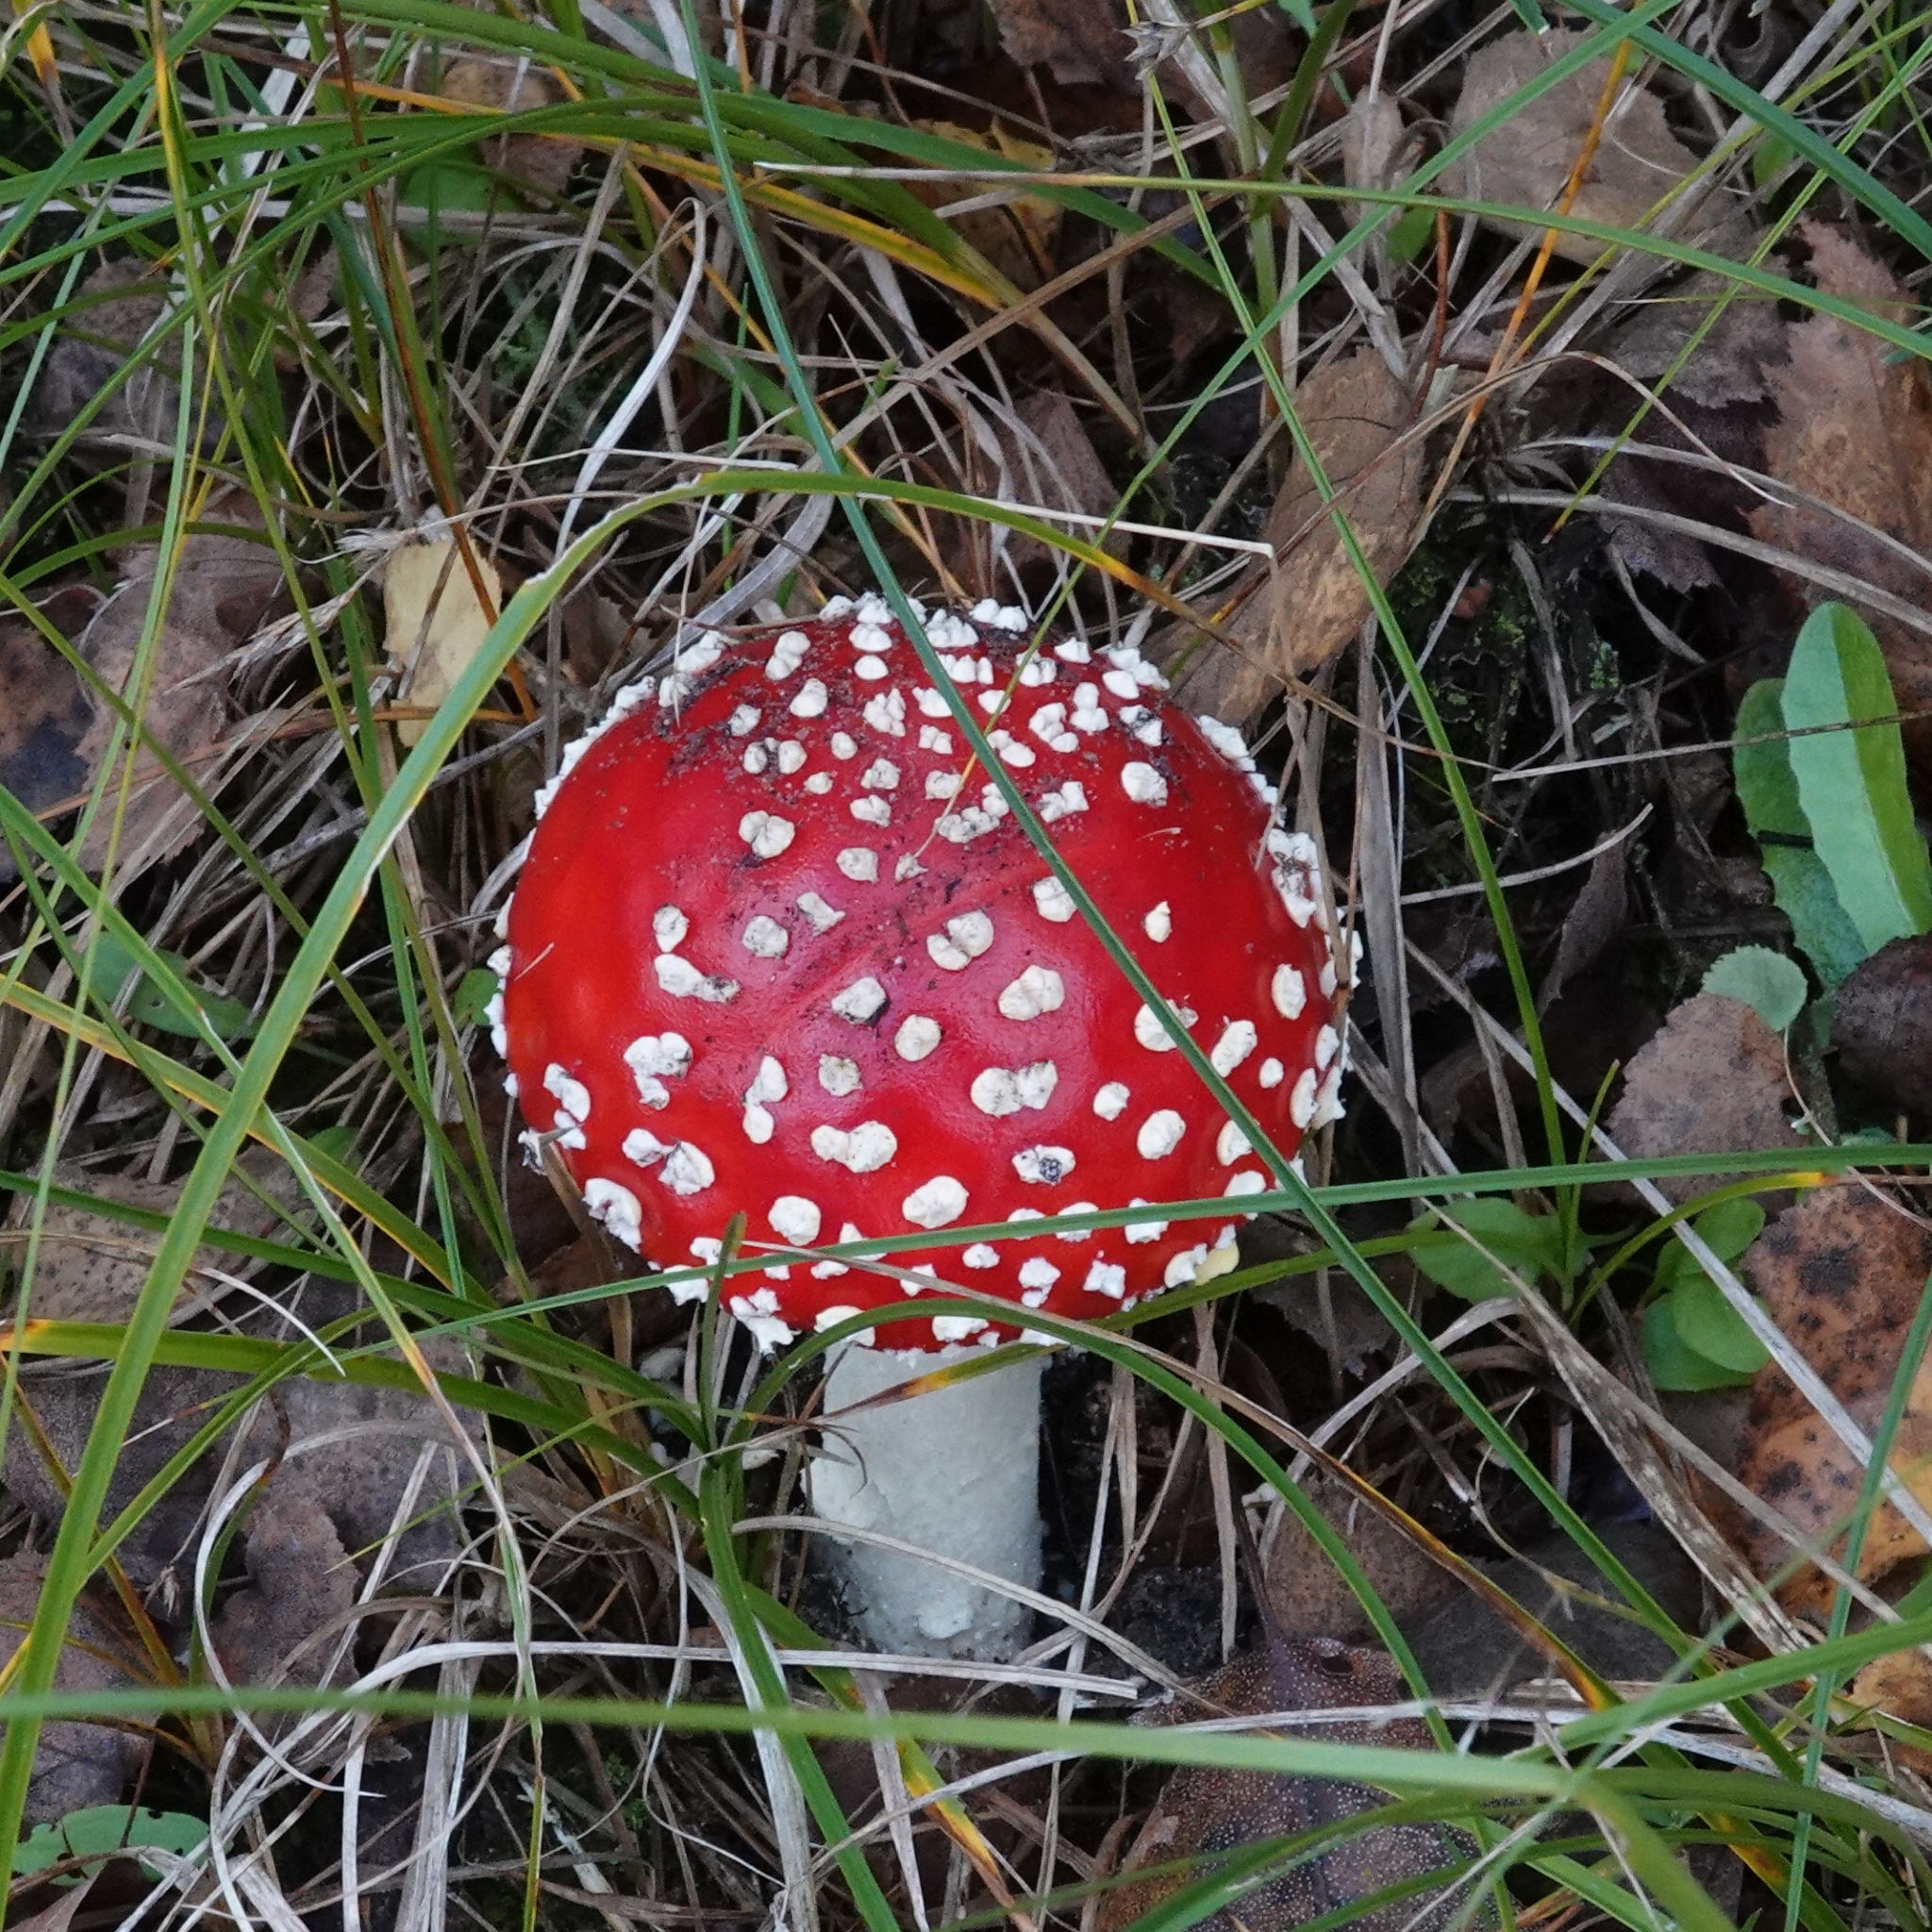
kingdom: Fungi
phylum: Basidiomycota
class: Agaricomycetes
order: Agaricales
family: Amanitaceae
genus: Amanita
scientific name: Amanita muscaria
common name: Fly agaric
